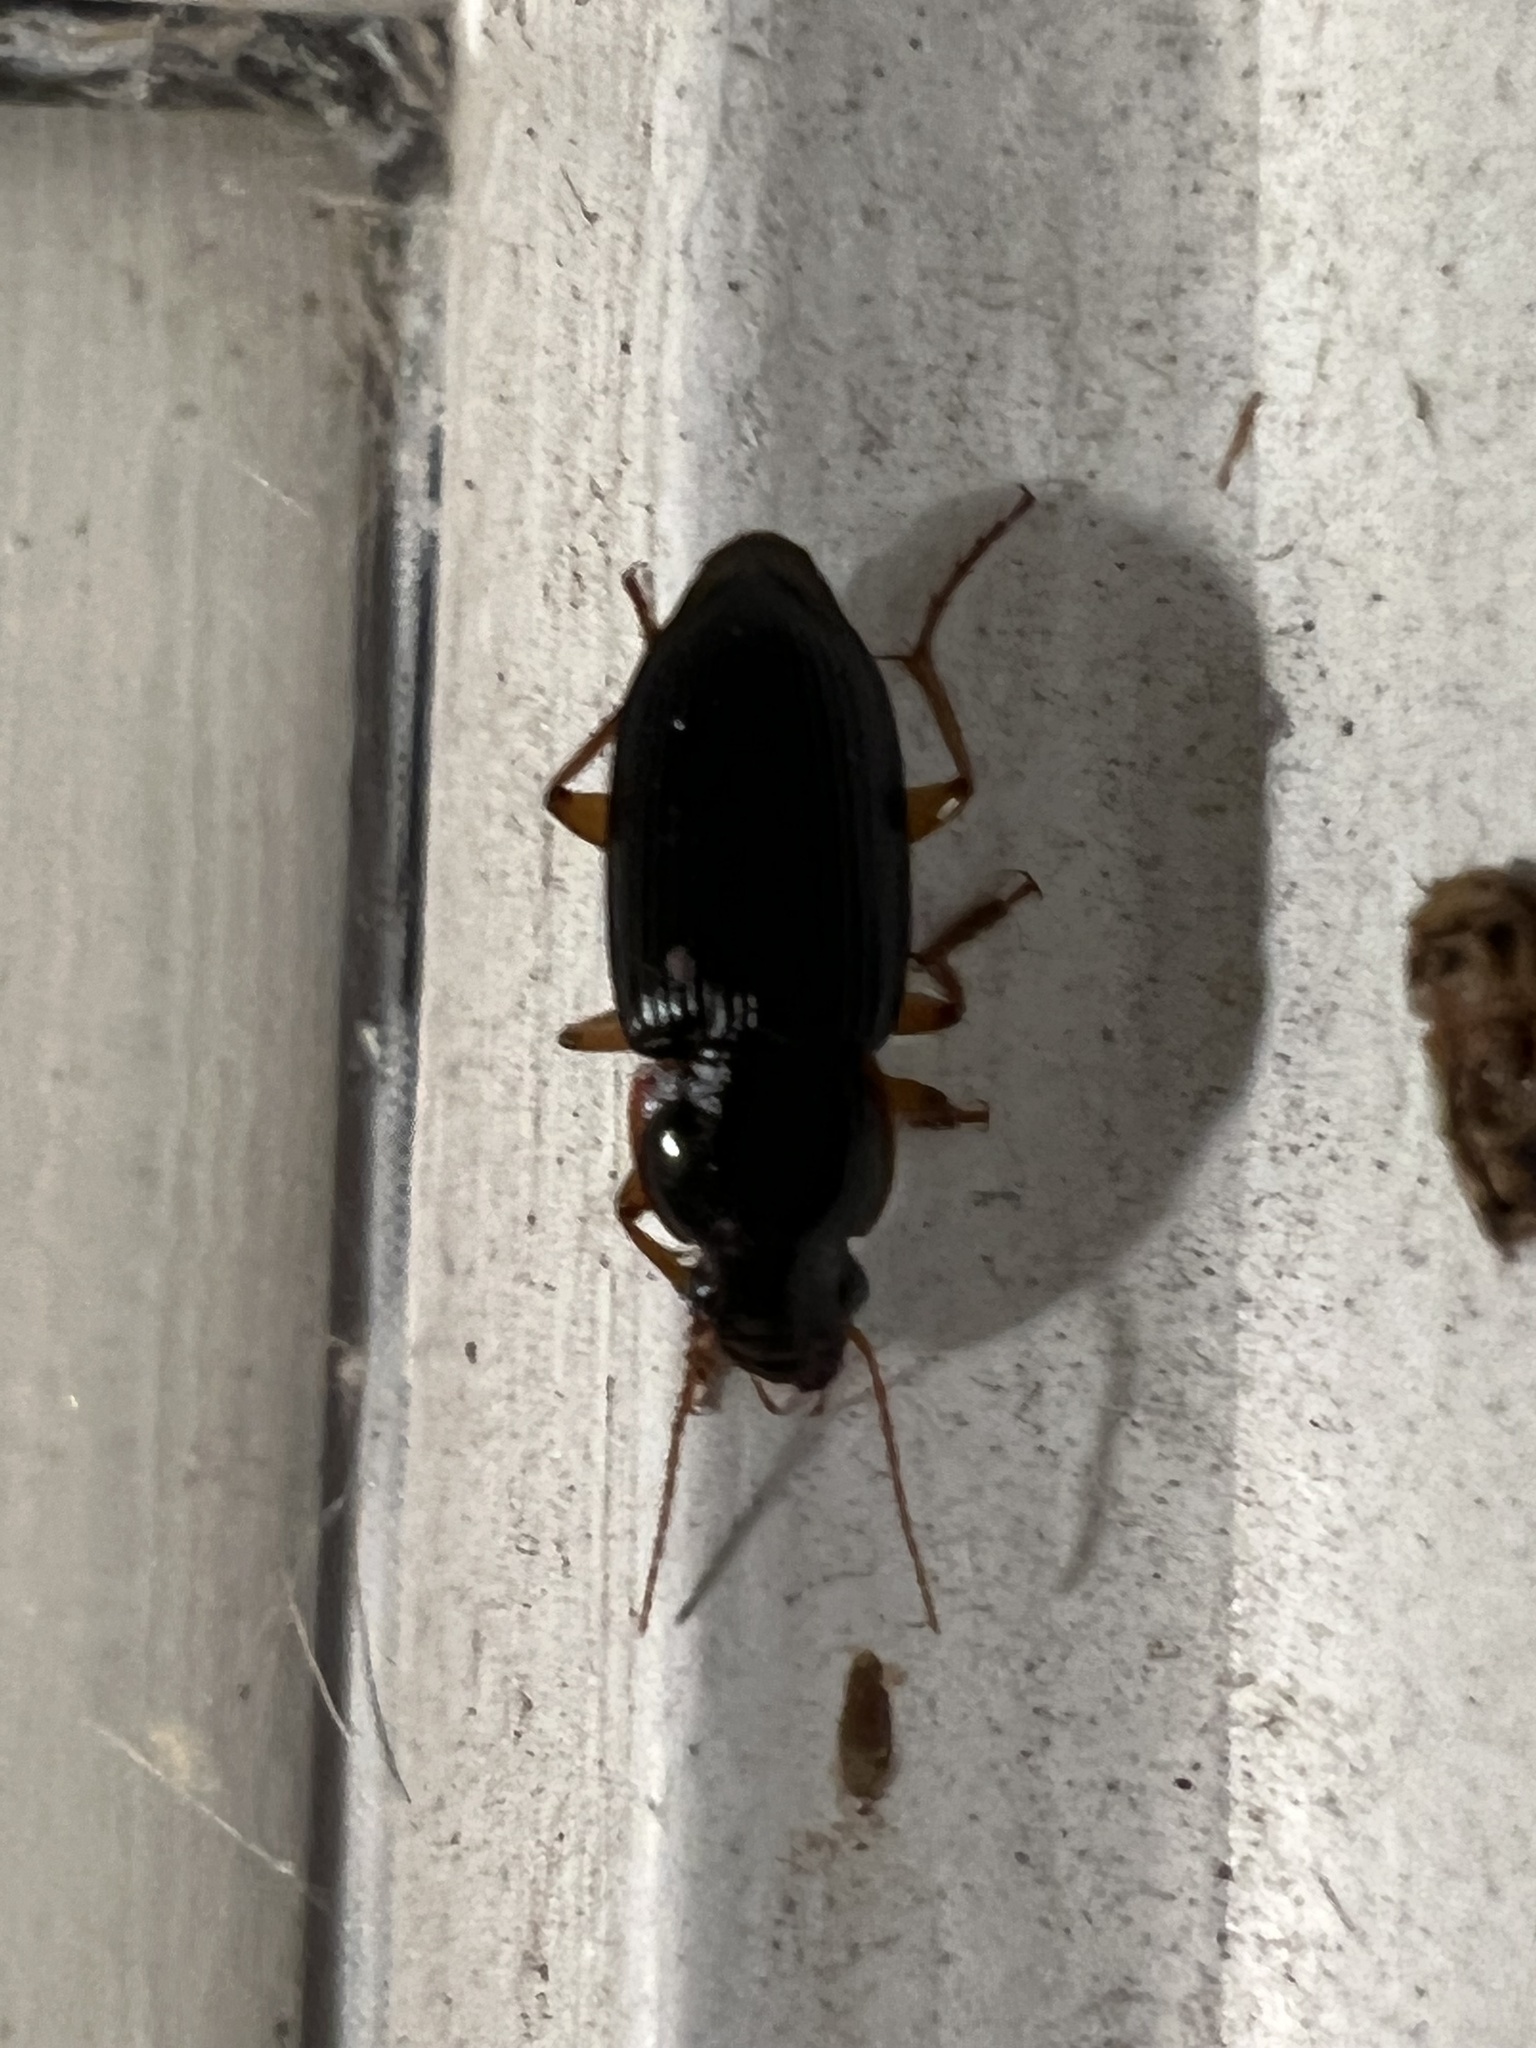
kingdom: Animalia
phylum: Arthropoda
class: Insecta
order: Coleoptera
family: Carabidae
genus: Harpalus
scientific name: Harpalus pensylvanicus
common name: Pennsylvania dingy ground beetle
